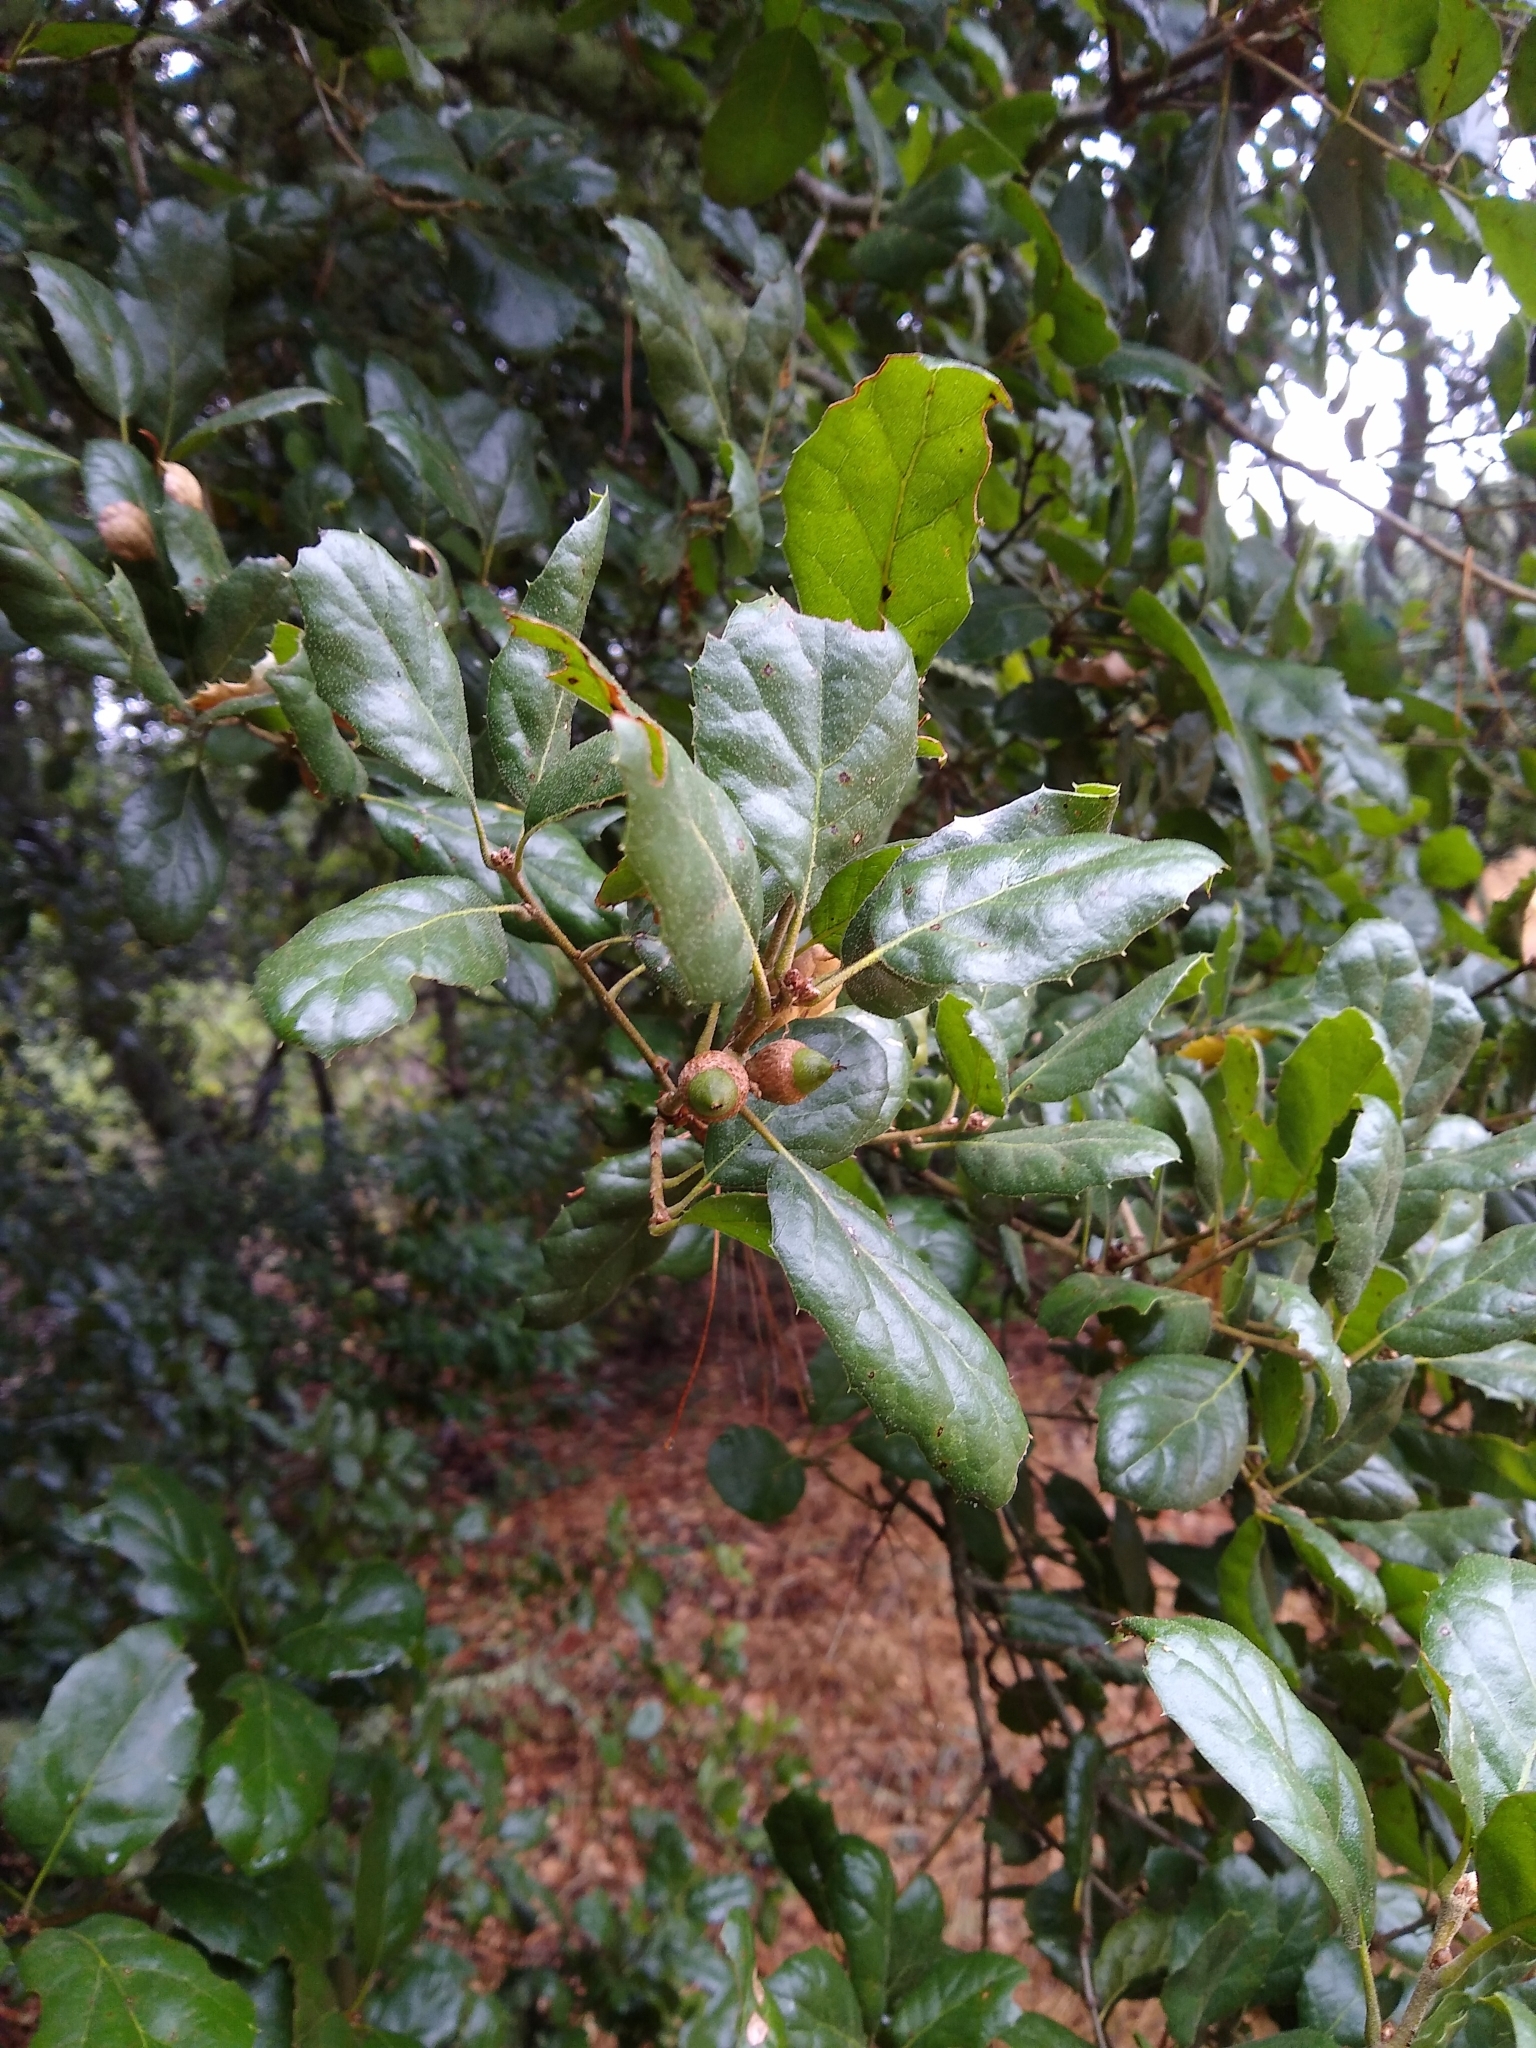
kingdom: Plantae
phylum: Tracheophyta
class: Magnoliopsida
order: Fagales
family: Fagaceae
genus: Quercus
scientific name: Quercus agrifolia
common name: California live oak
